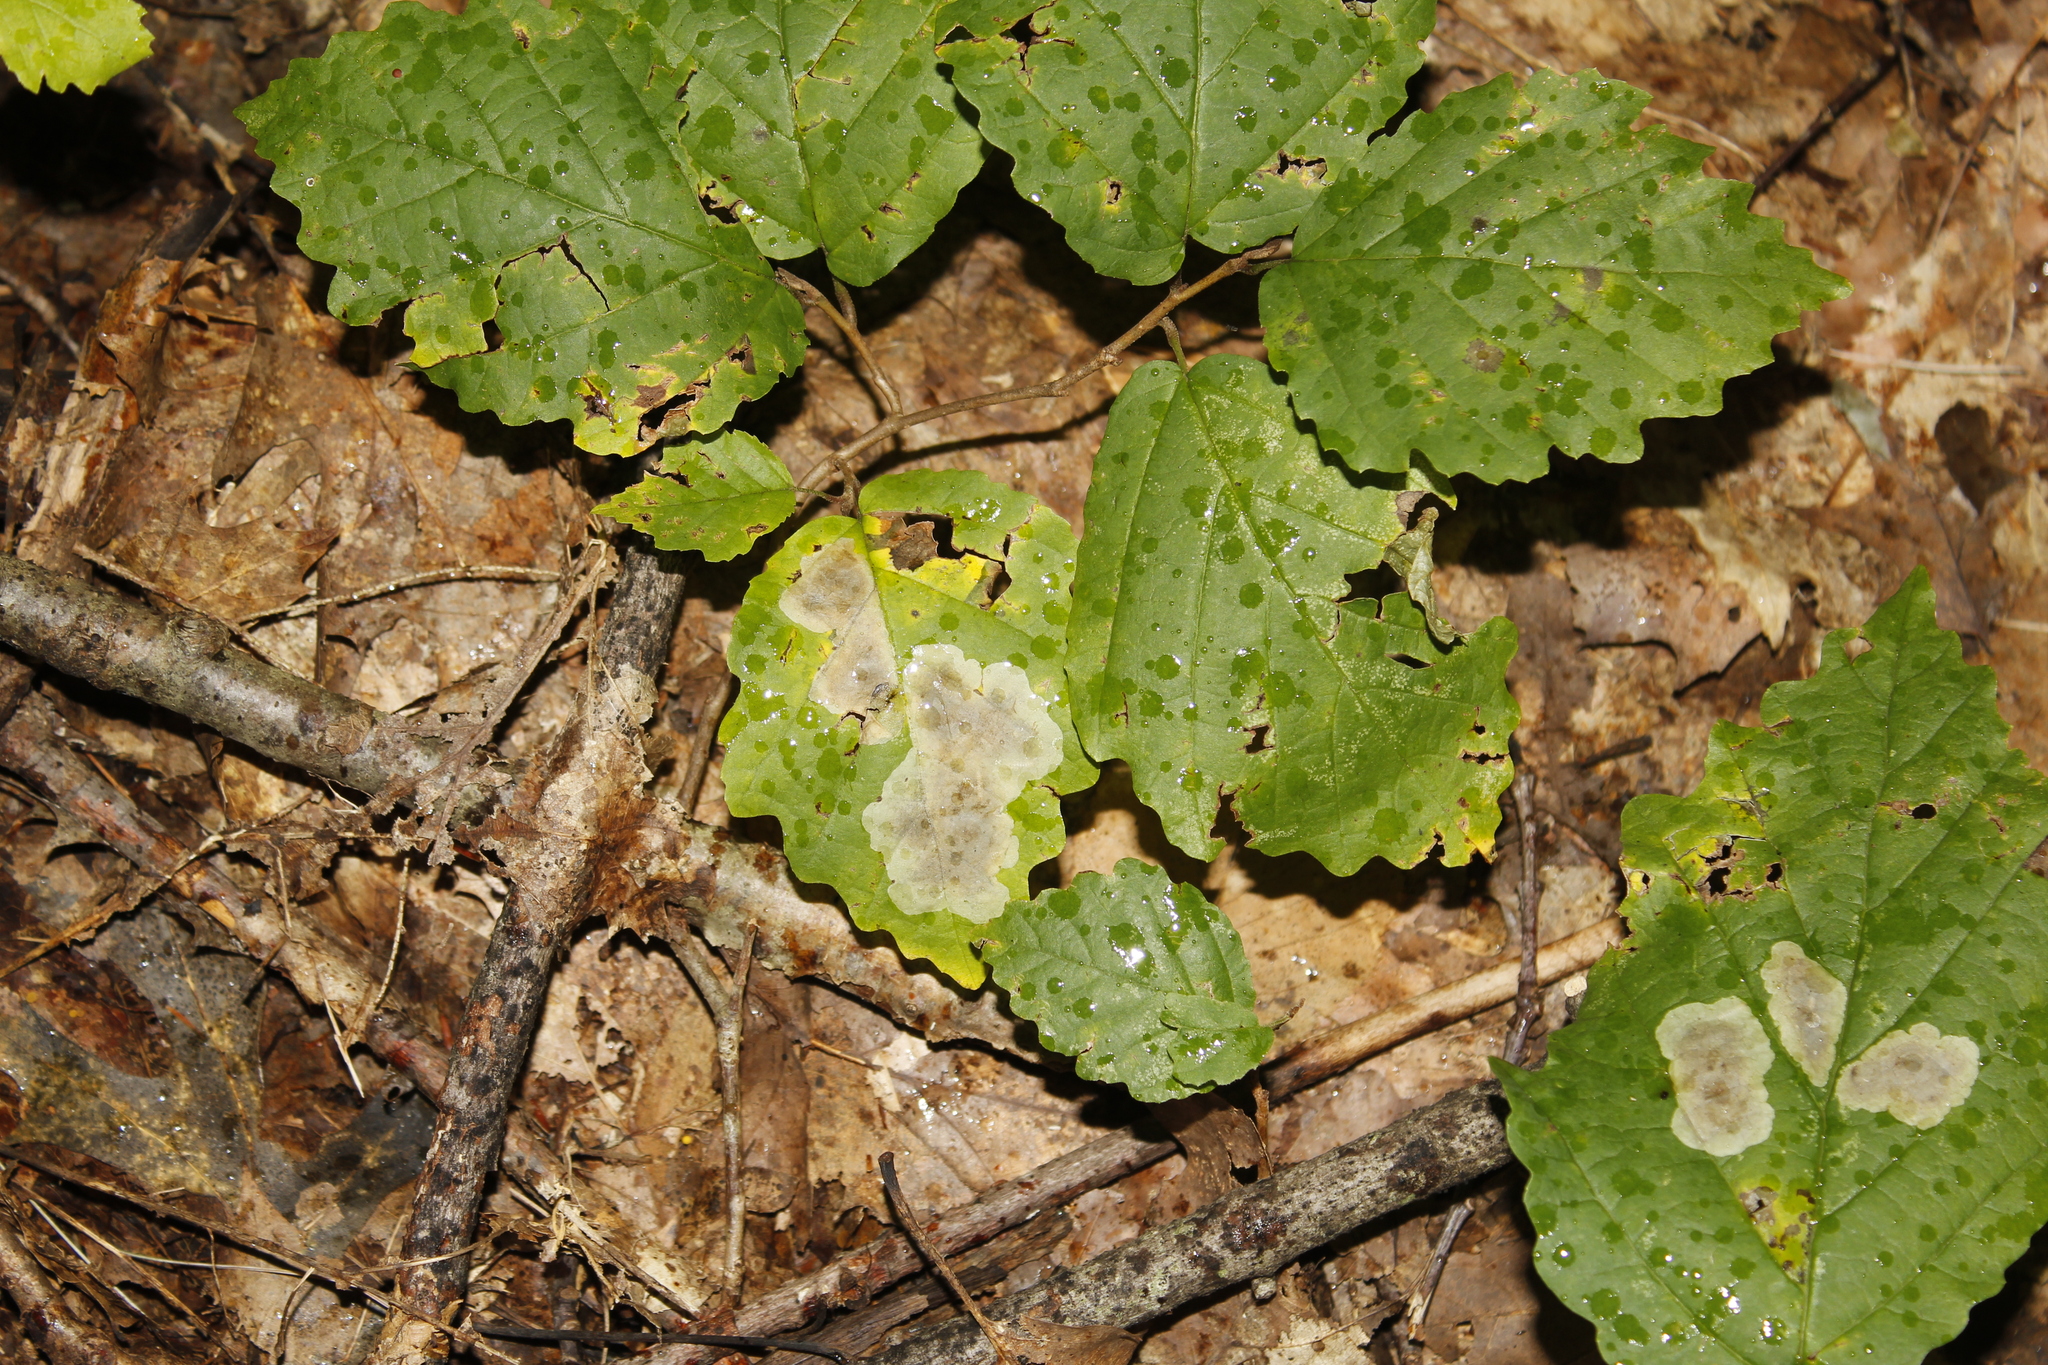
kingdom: Animalia
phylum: Arthropoda
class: Insecta
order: Lepidoptera
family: Gracillariidae
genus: Cameraria
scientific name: Cameraria hamameliella
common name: Witchhazel leafminer
